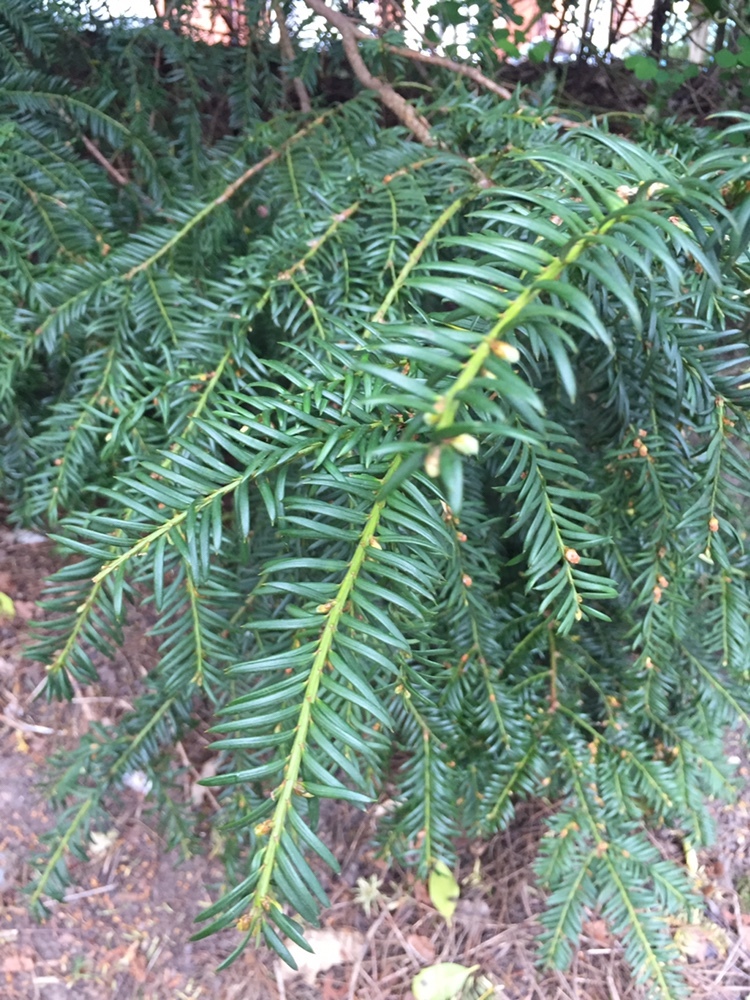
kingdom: Plantae
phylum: Tracheophyta
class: Pinopsida
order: Pinales
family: Taxaceae
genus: Taxus
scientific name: Taxus baccata
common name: Yew
